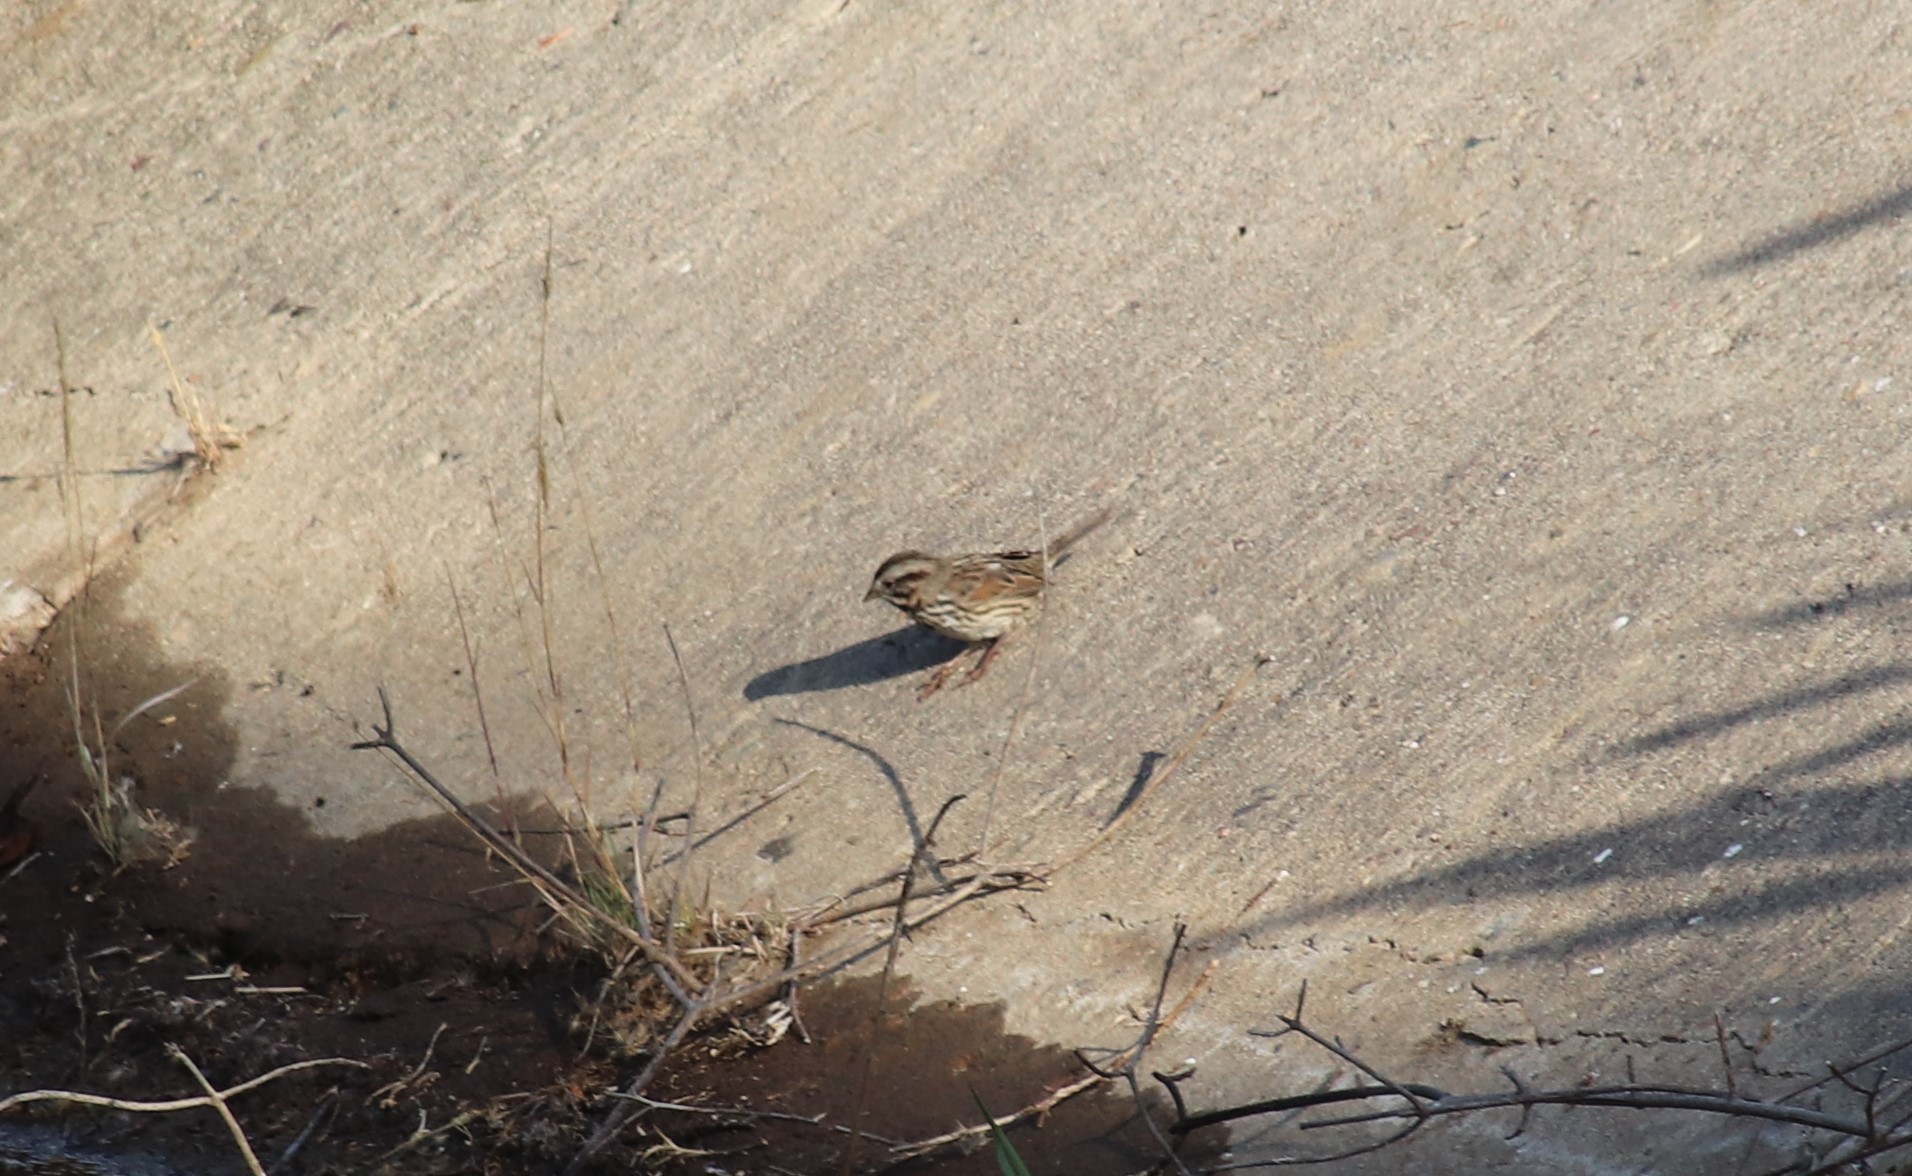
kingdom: Animalia
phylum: Chordata
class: Aves
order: Passeriformes
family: Passerellidae
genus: Melospiza
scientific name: Melospiza melodia
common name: Song sparrow
